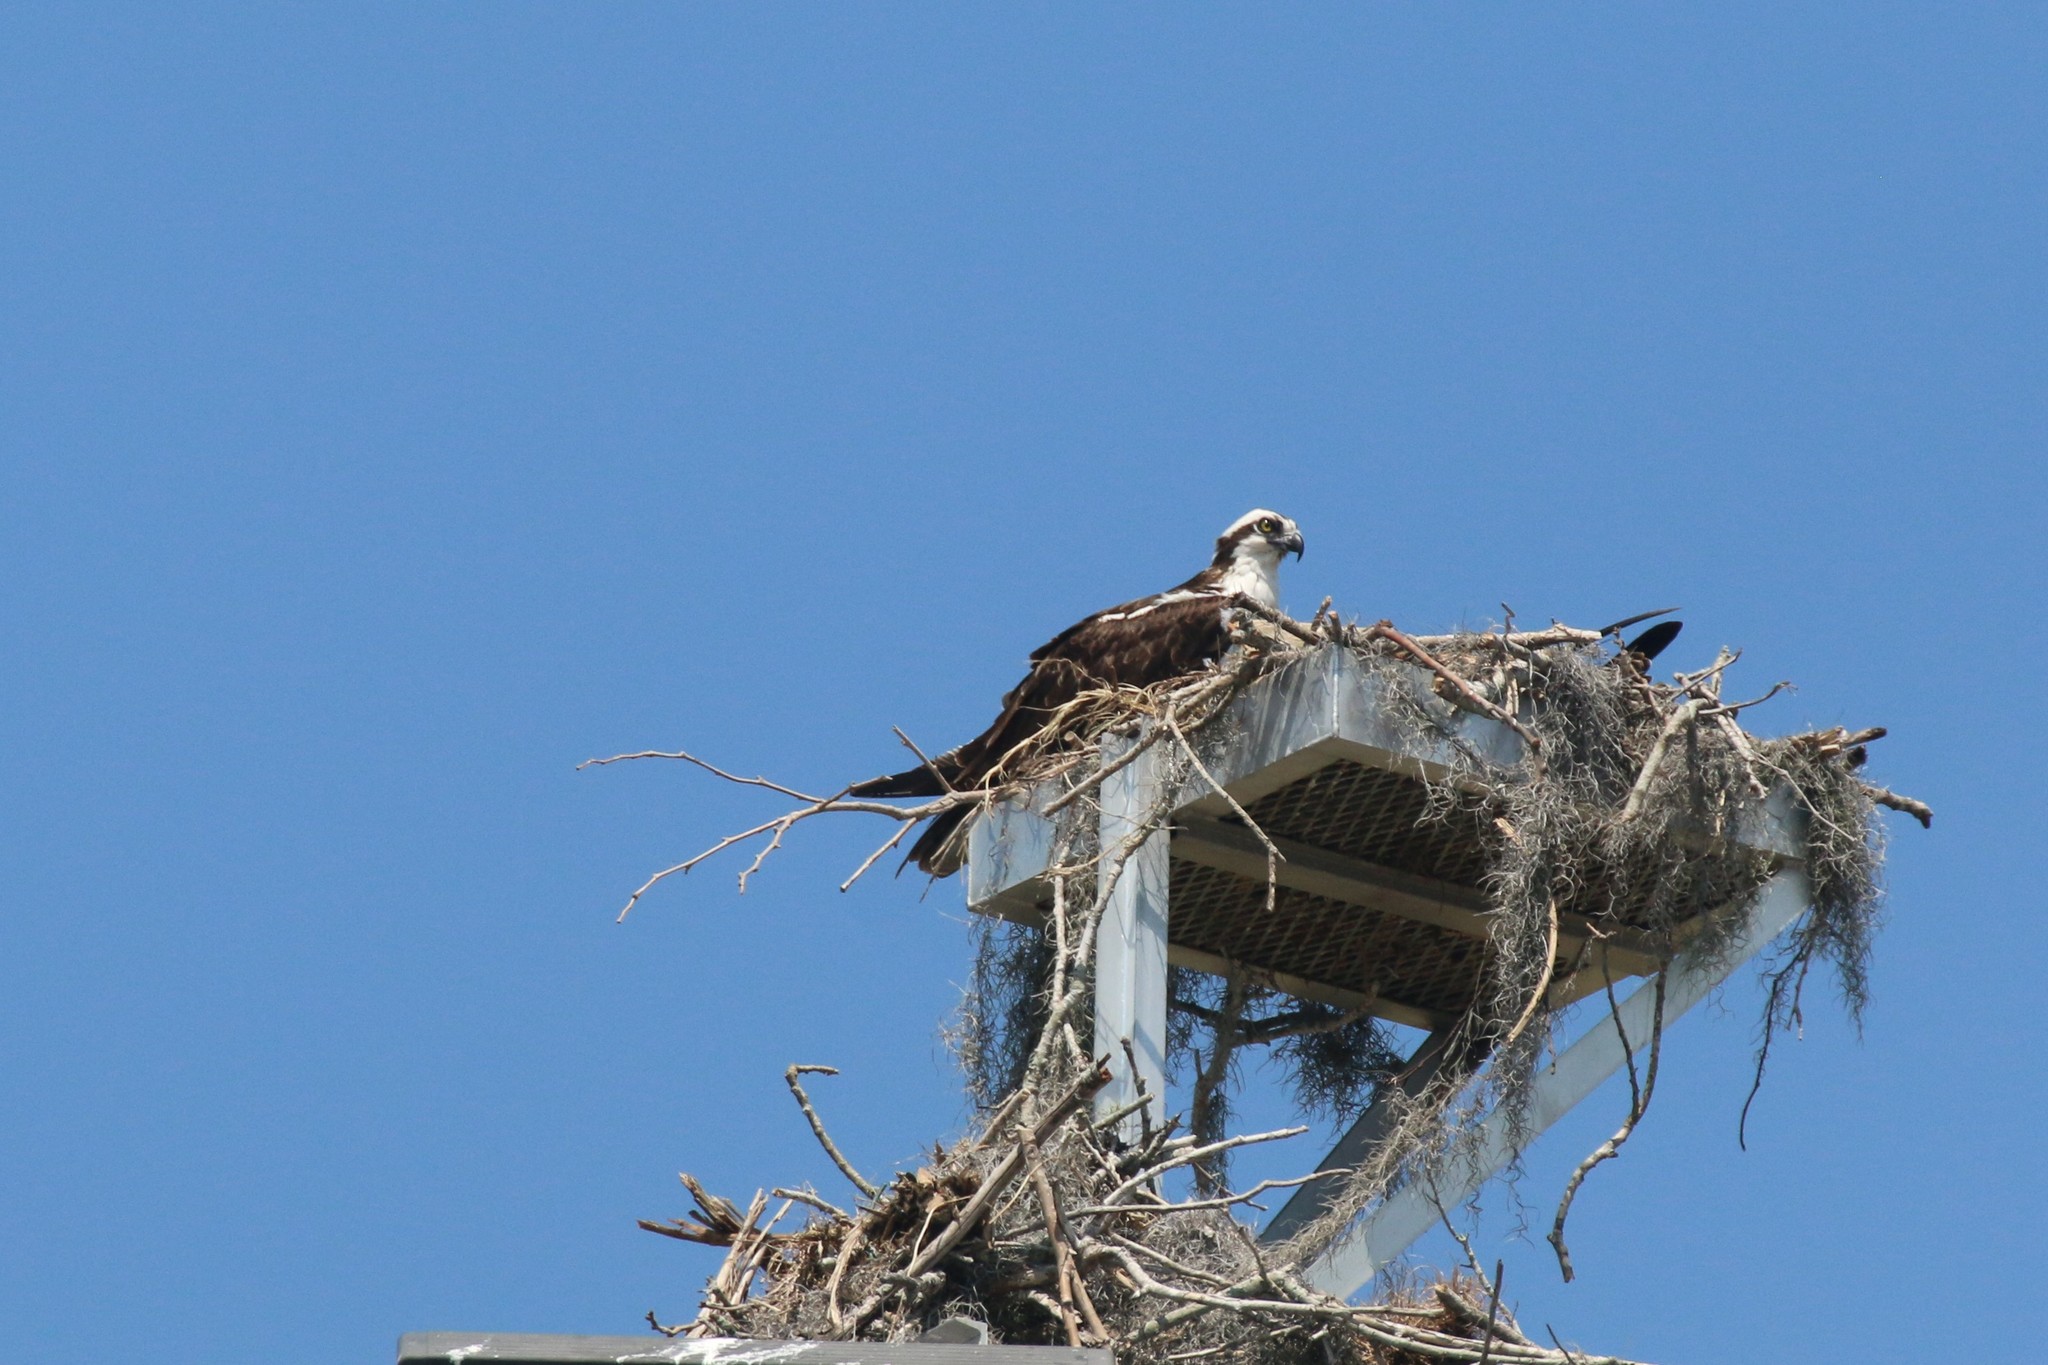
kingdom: Animalia
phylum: Chordata
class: Aves
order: Accipitriformes
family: Pandionidae
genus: Pandion
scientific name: Pandion haliaetus
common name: Osprey
